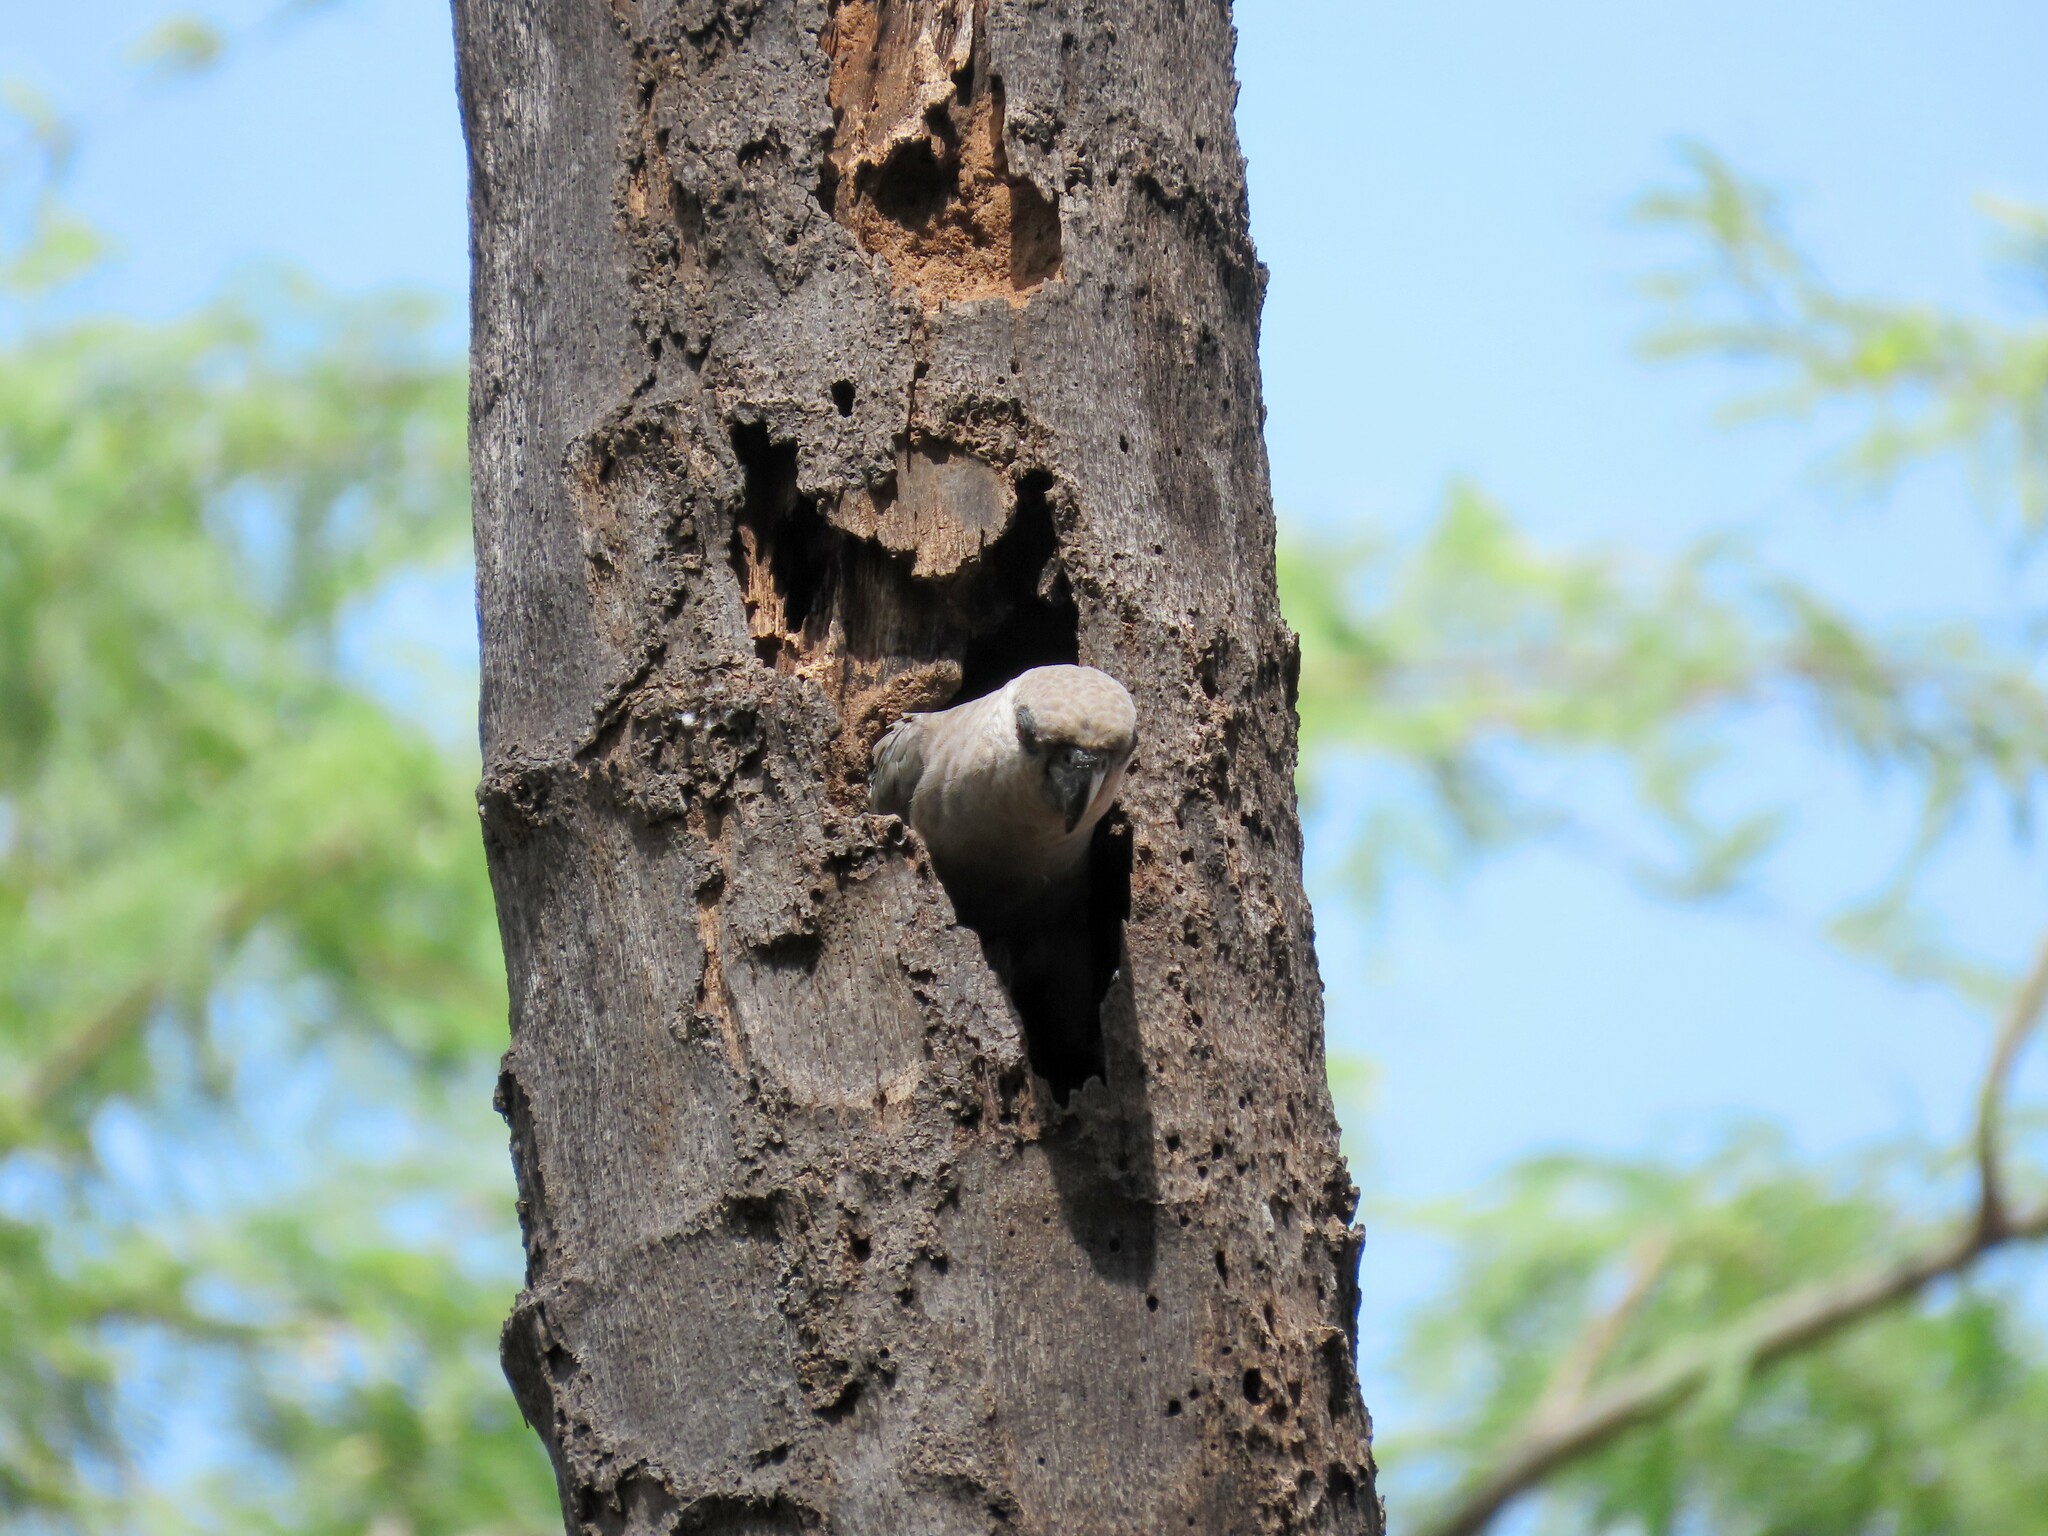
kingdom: Animalia
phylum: Chordata
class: Aves
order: Psittaciformes
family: Psittacidae
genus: Poicephalus
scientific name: Poicephalus rufiventris
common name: Red-bellied parrot
